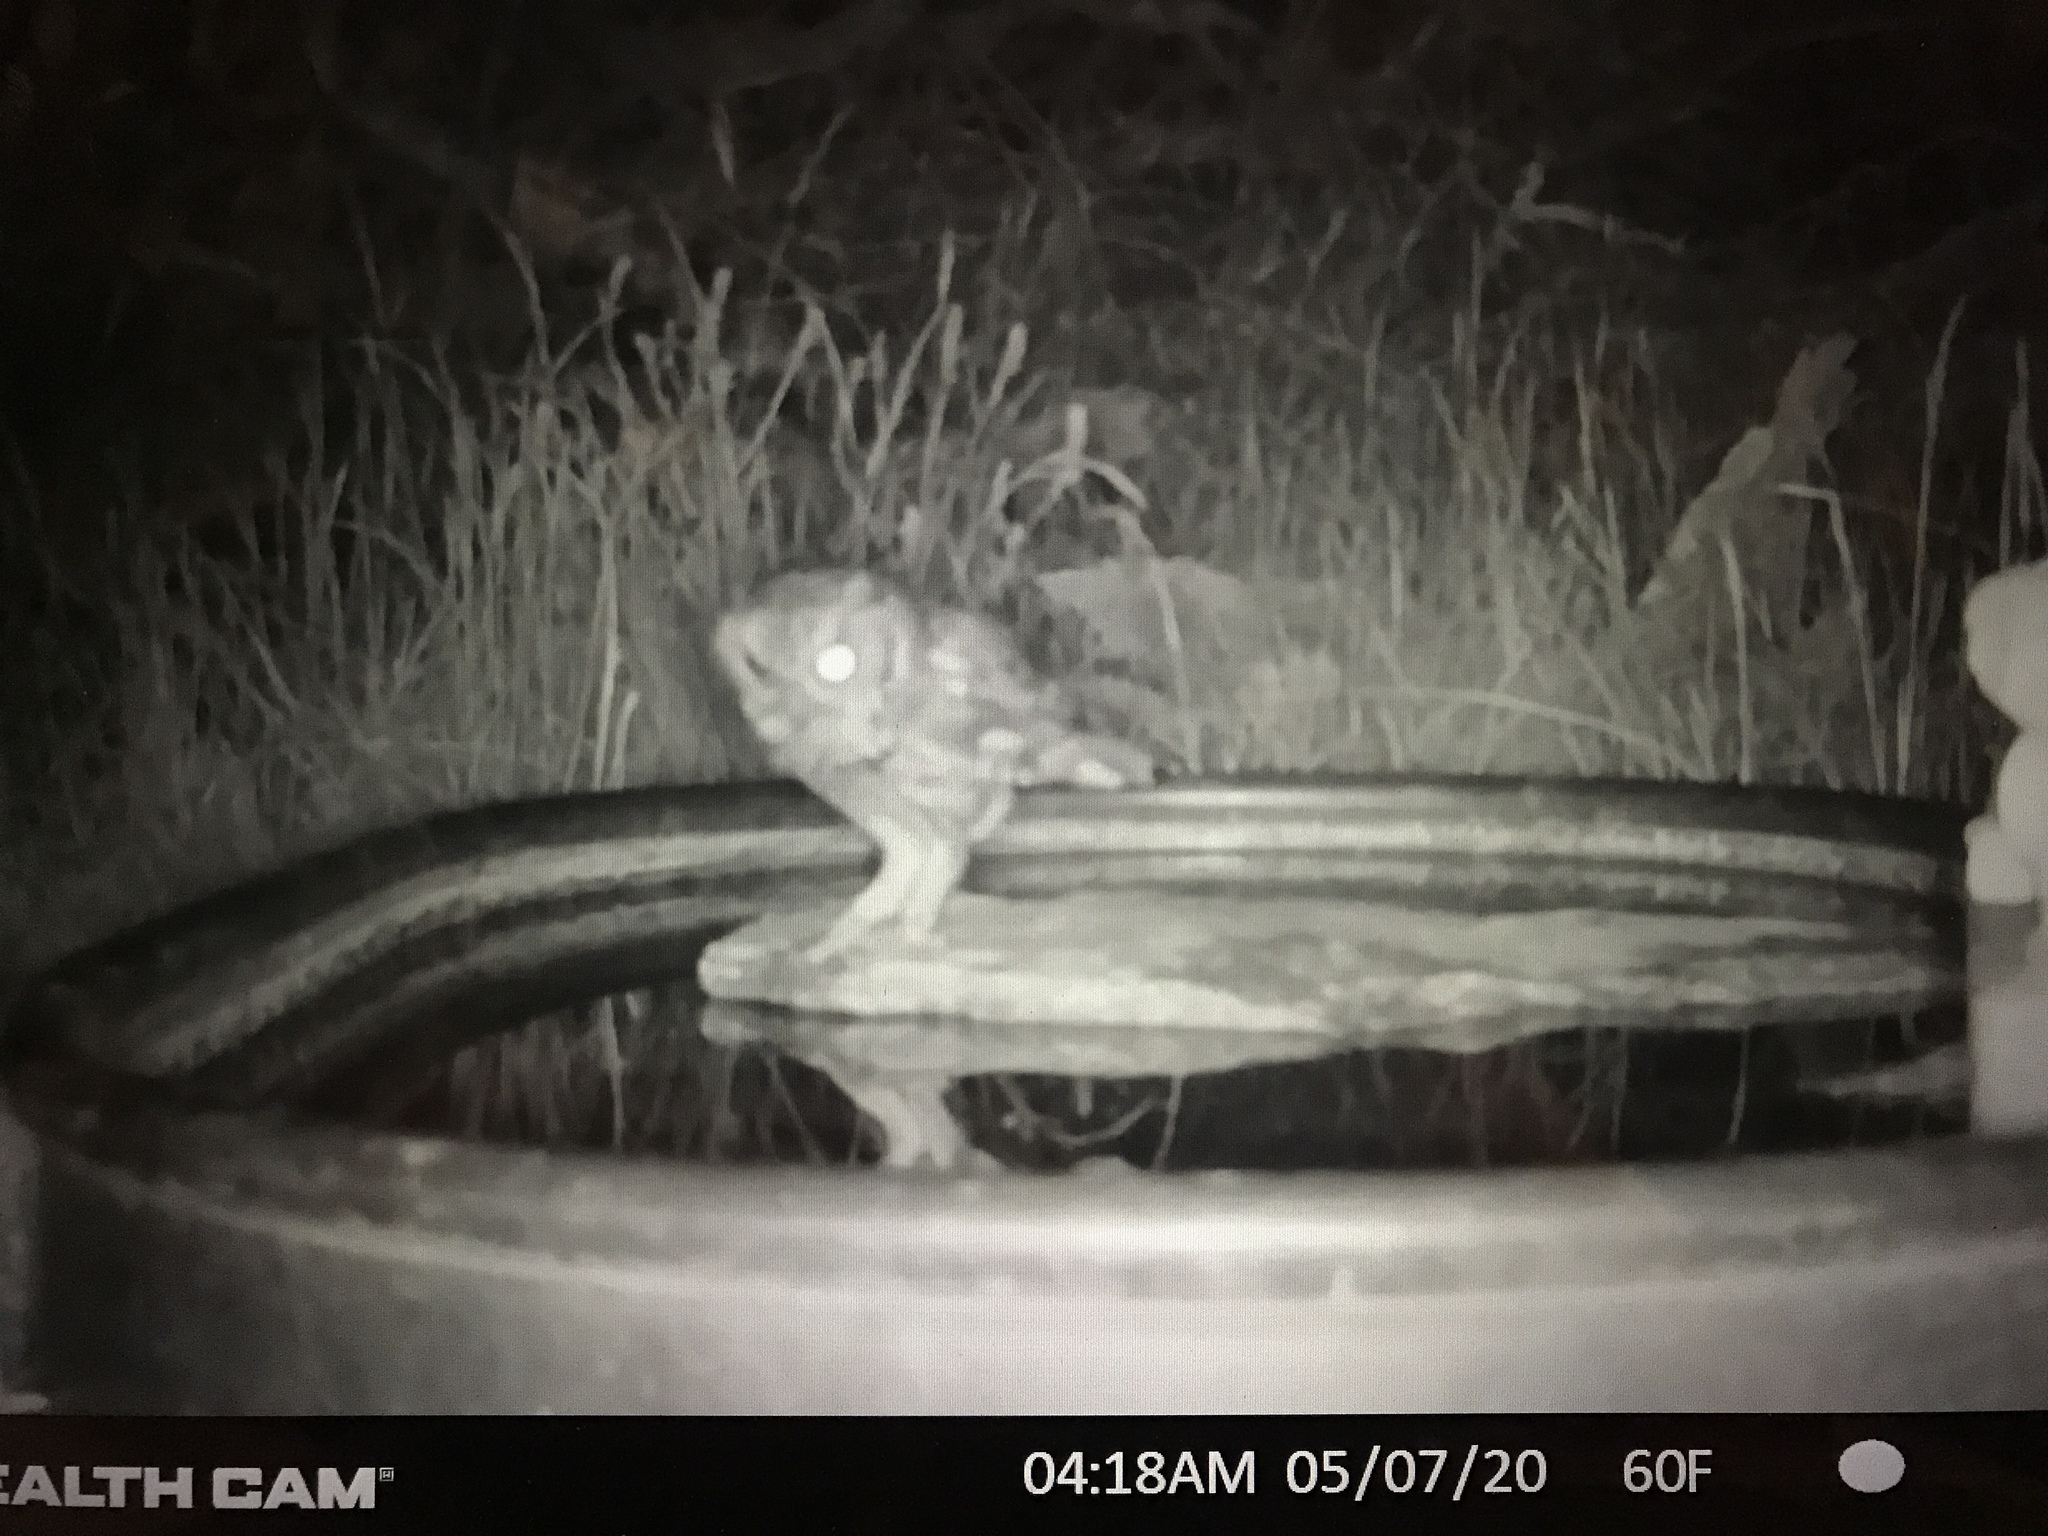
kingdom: Animalia
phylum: Chordata
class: Aves
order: Strigiformes
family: Strigidae
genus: Megascops
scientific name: Megascops asio
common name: Eastern screech-owl
